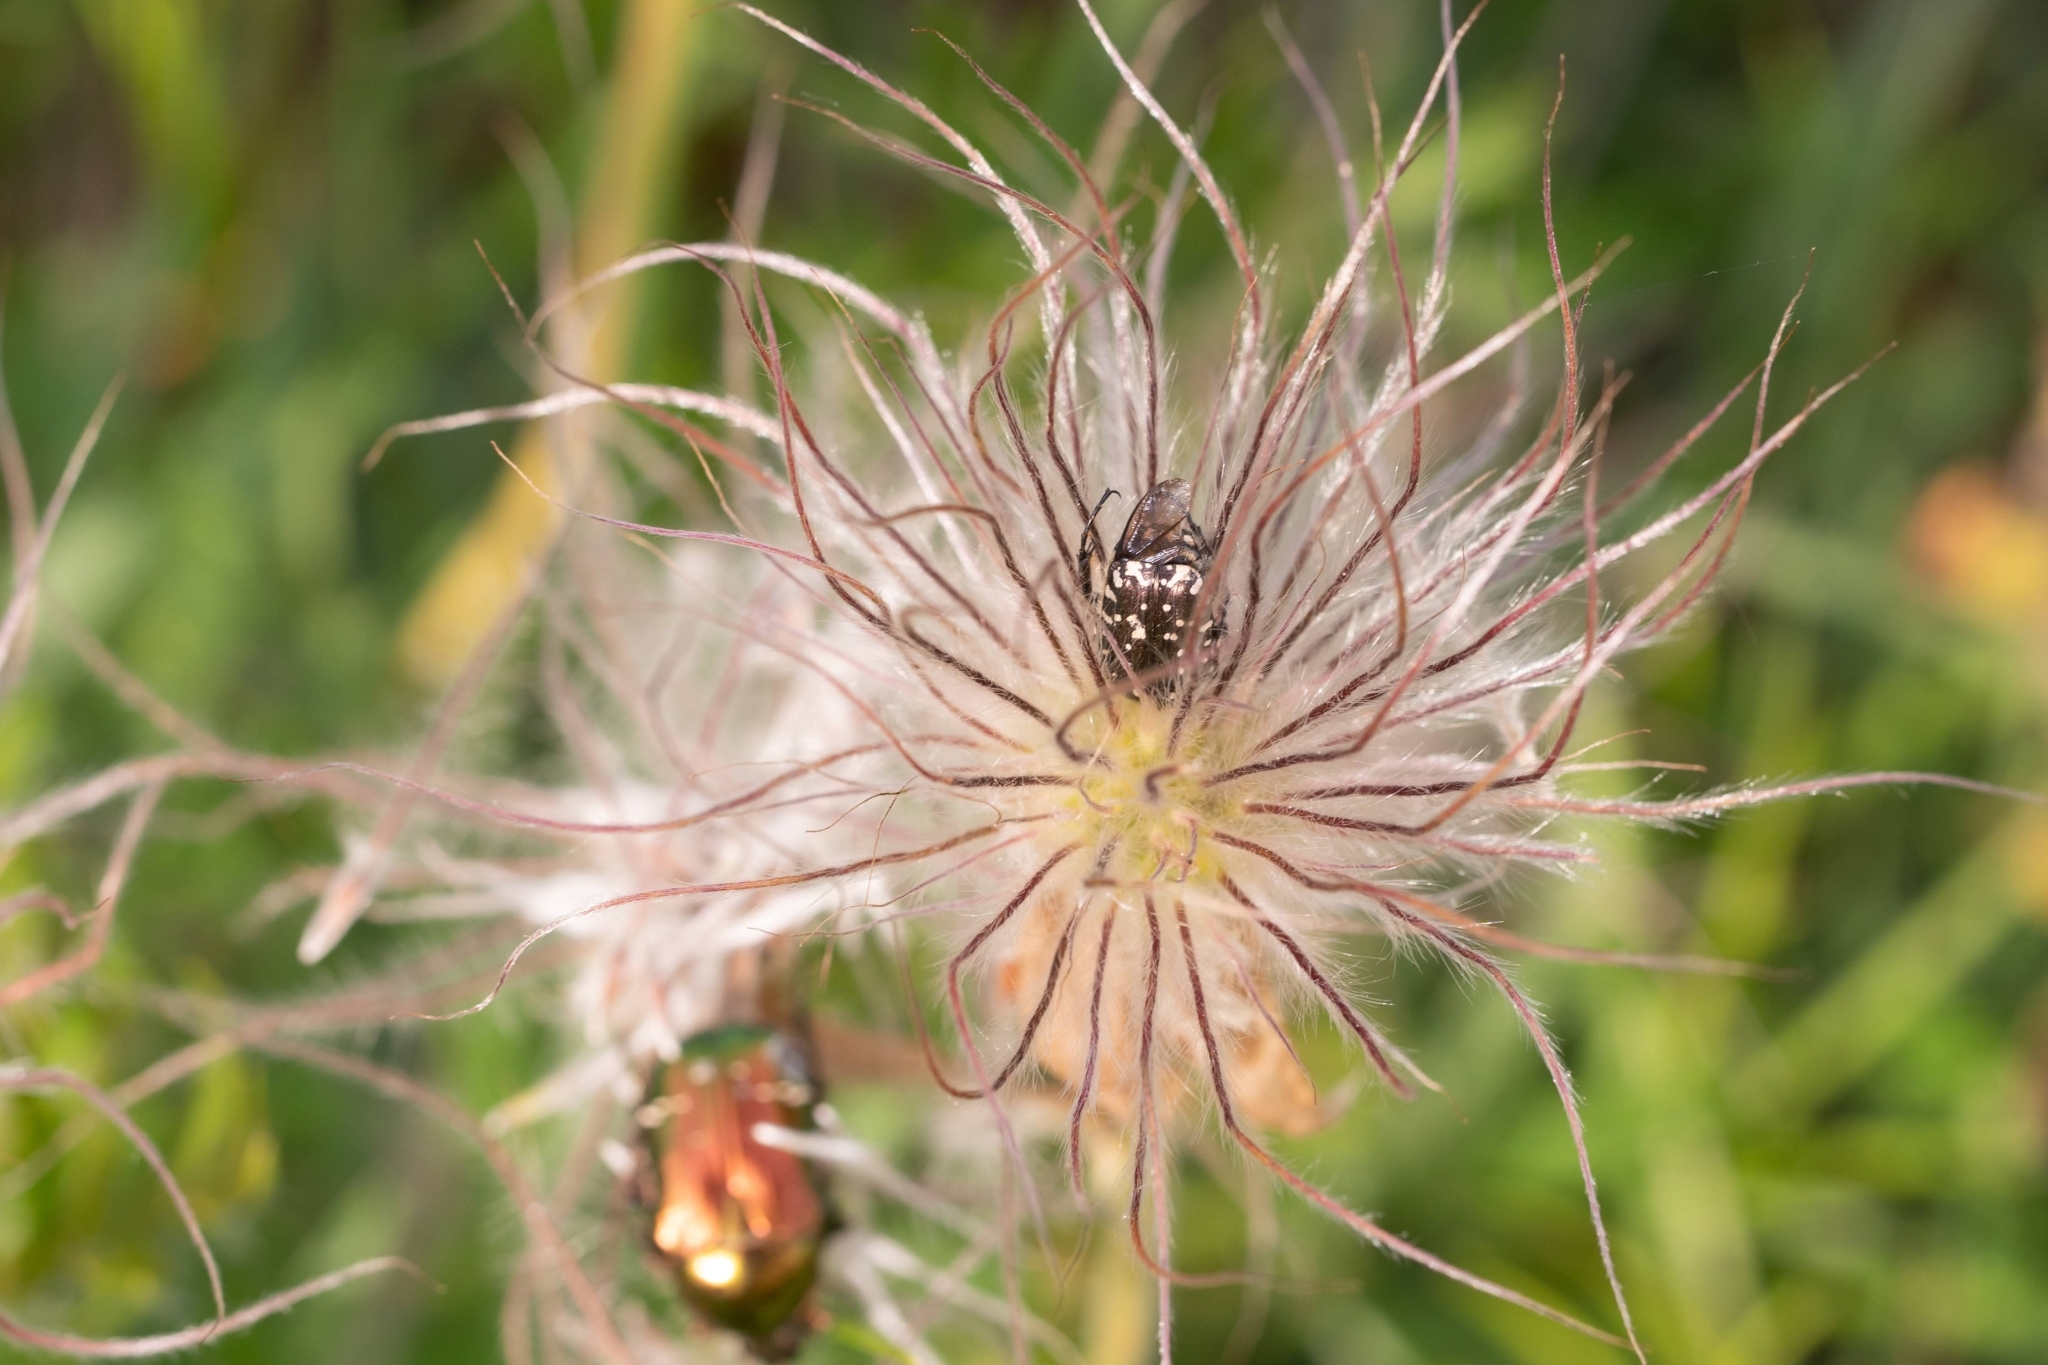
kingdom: Animalia
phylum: Arthropoda
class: Insecta
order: Coleoptera
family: Scarabaeidae
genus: Oxythyrea
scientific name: Oxythyrea funesta
